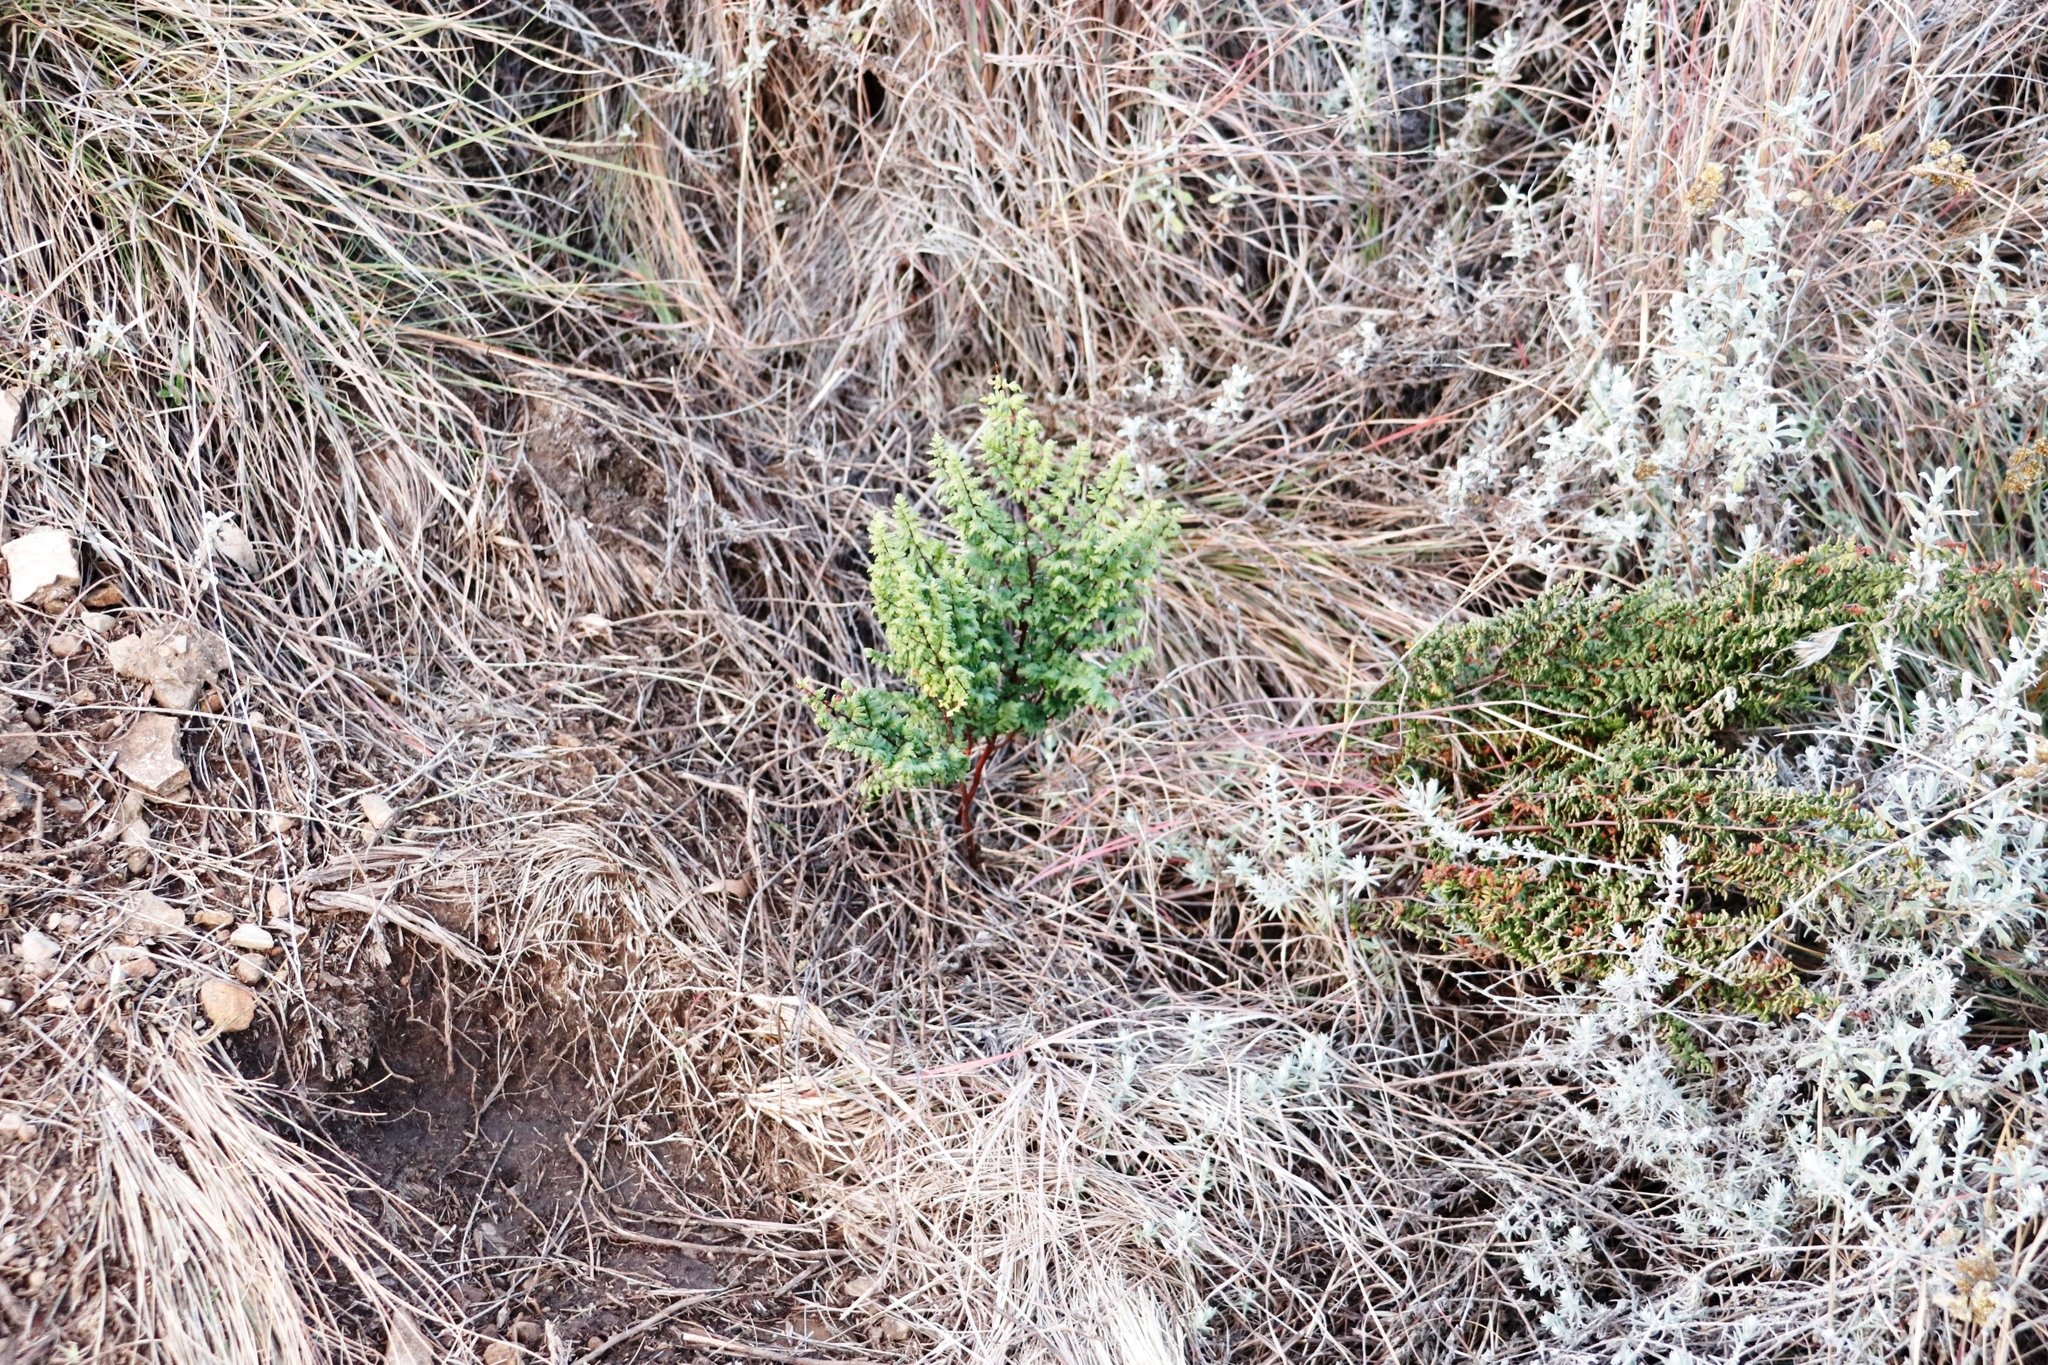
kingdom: Plantae
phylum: Tracheophyta
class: Polypodiopsida
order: Polypodiales
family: Pteridaceae
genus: Cheilanthes
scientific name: Cheilanthes quadripinnata
